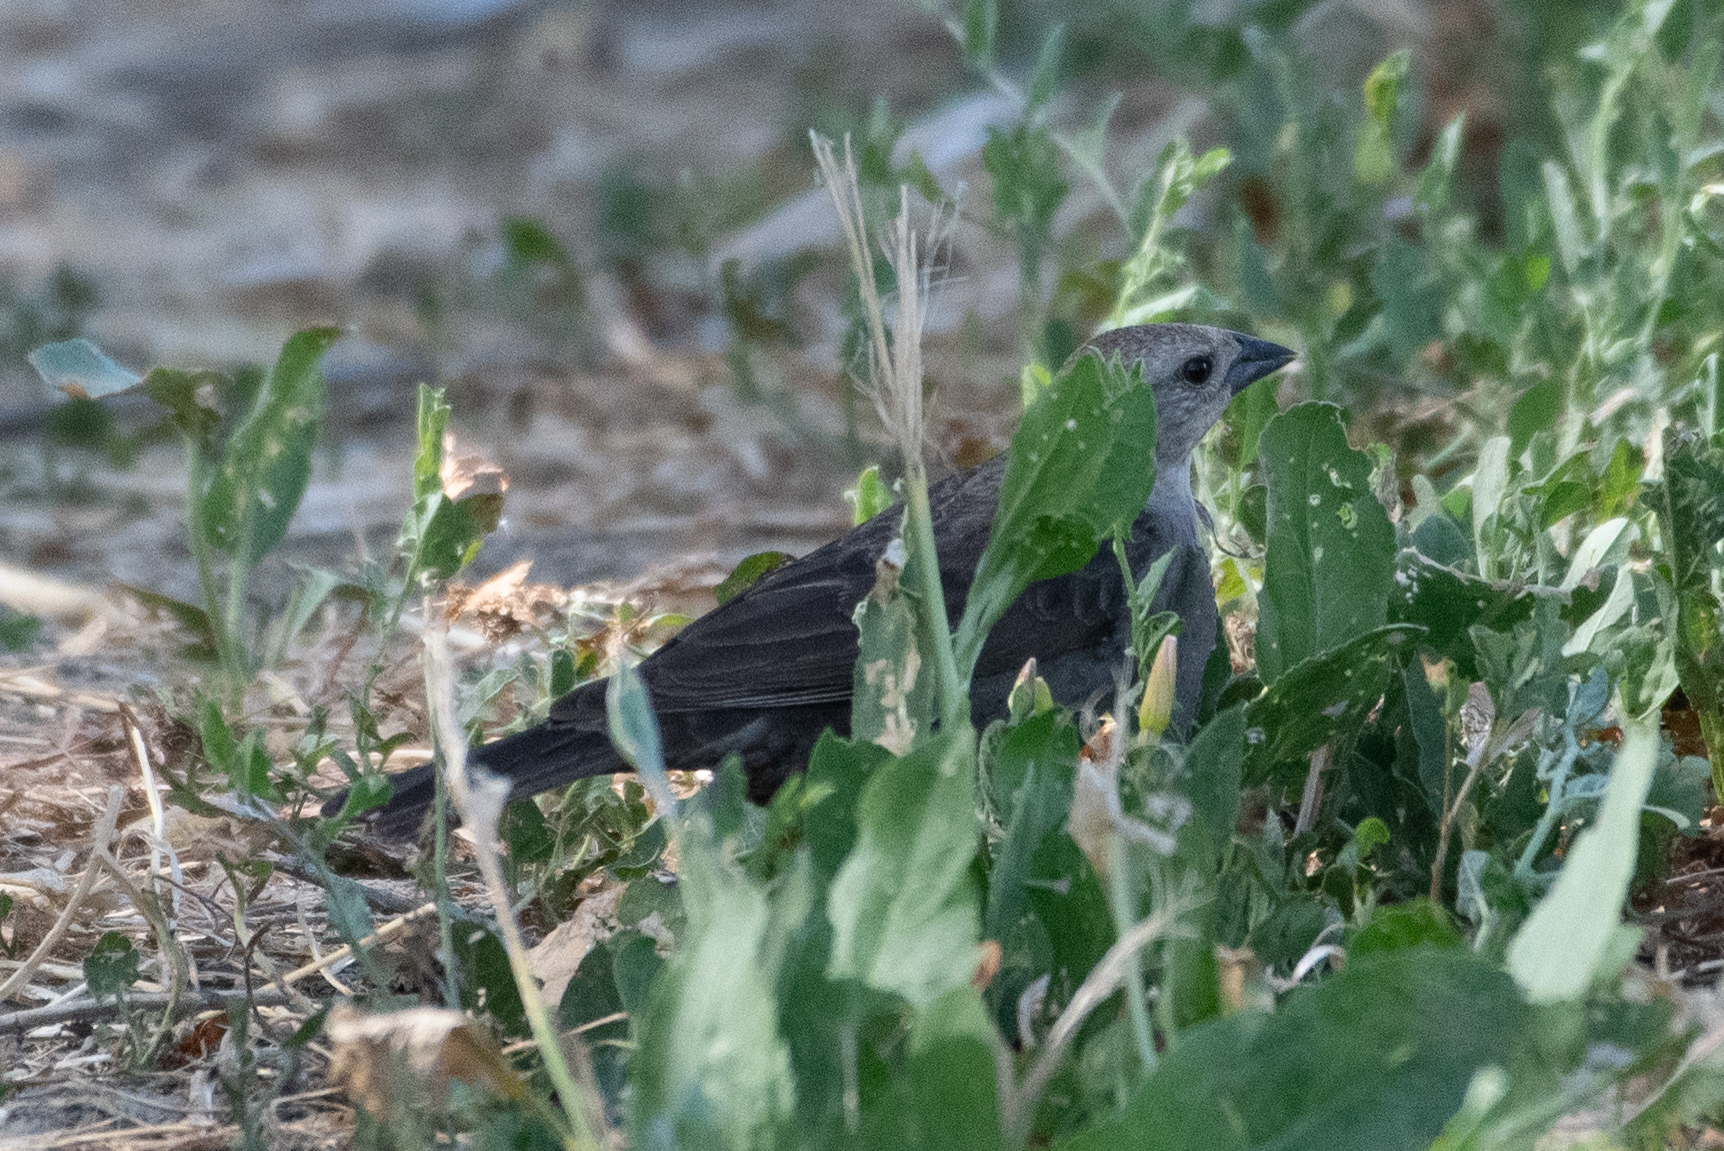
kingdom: Animalia
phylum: Chordata
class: Aves
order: Passeriformes
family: Icteridae
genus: Molothrus
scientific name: Molothrus ater
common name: Brown-headed cowbird
